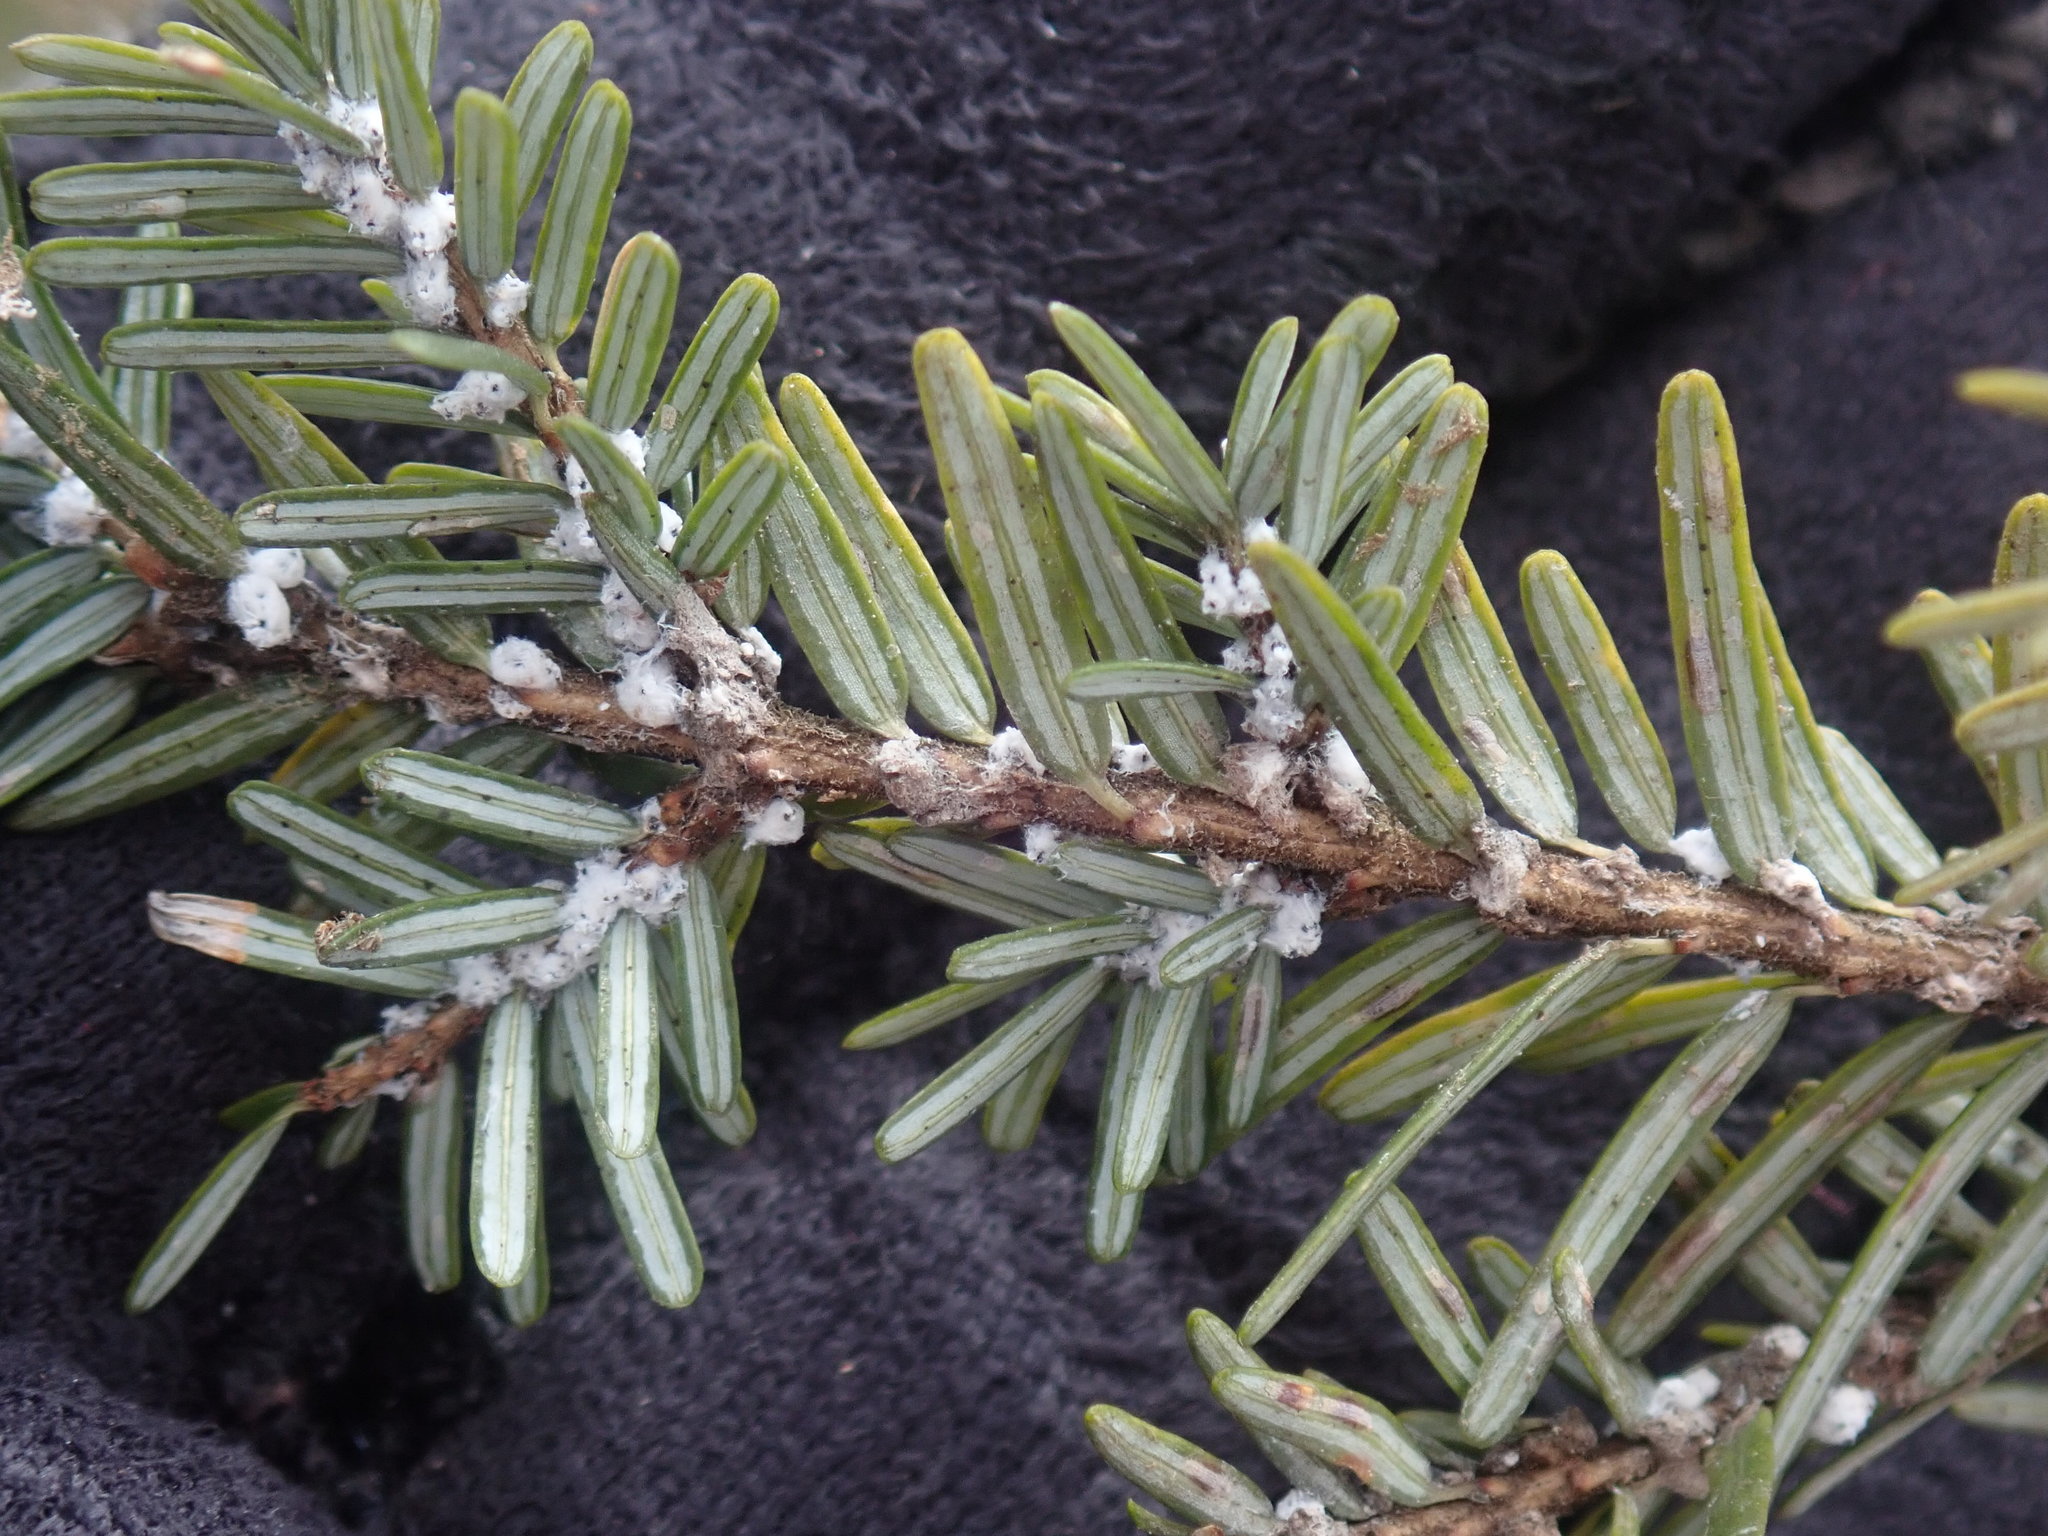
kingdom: Animalia
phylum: Arthropoda
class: Insecta
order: Hemiptera
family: Adelgidae
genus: Adelges
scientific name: Adelges tsugae
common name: Hemlock woolly adelgid
